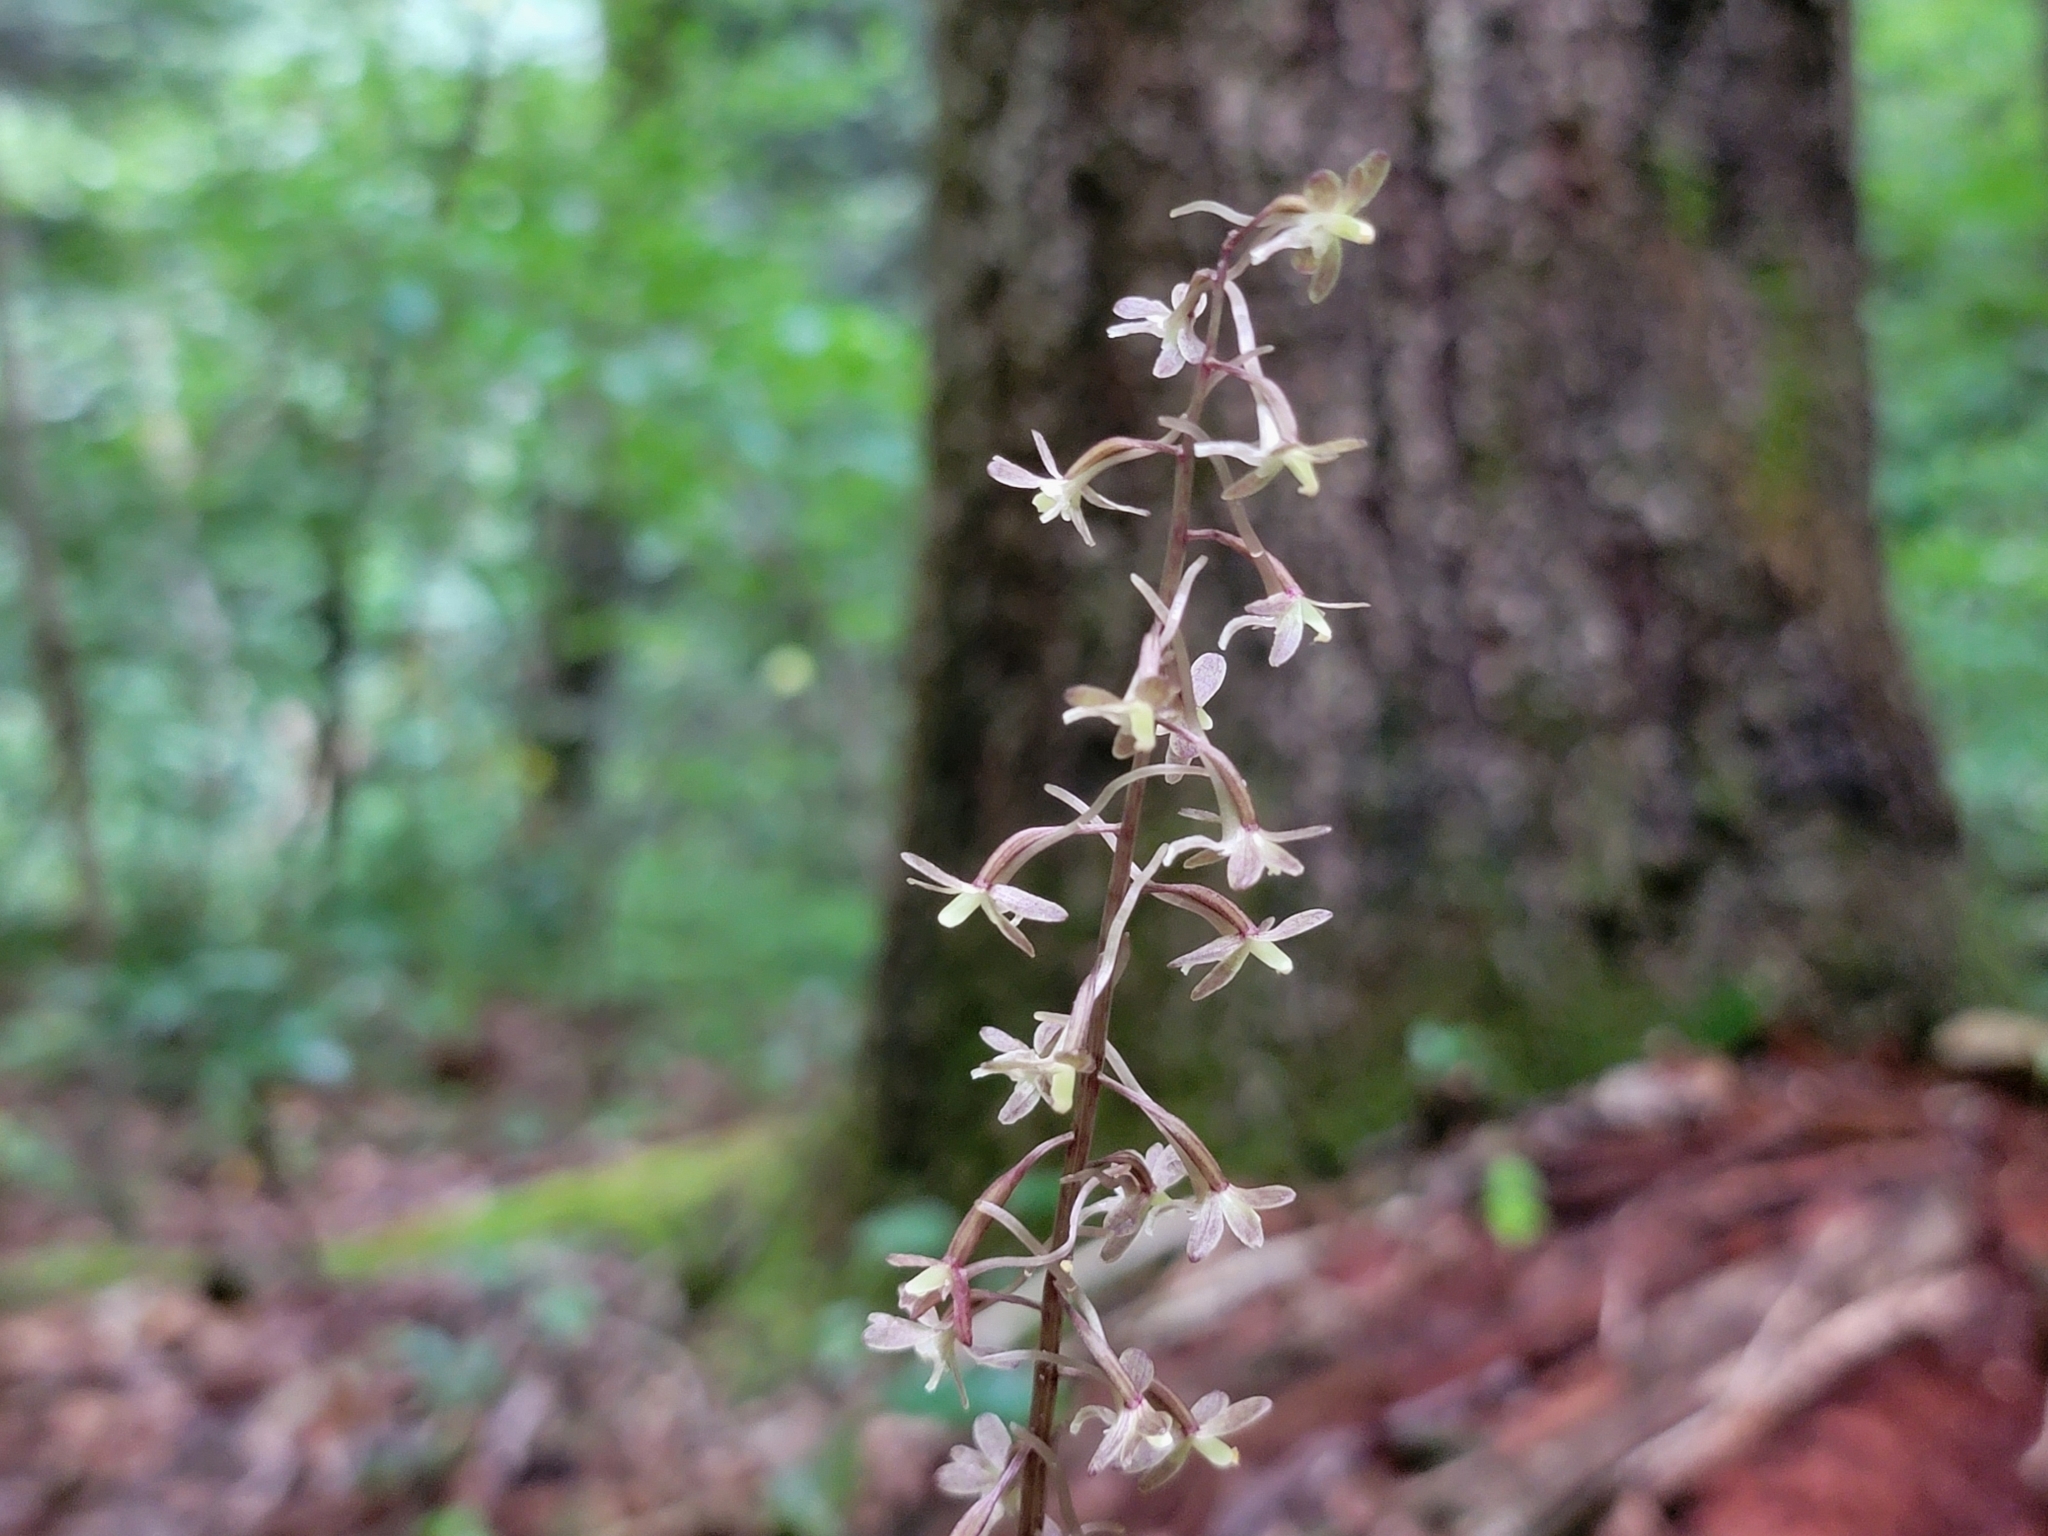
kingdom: Plantae
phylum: Tracheophyta
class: Liliopsida
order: Asparagales
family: Orchidaceae
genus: Tipularia
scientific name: Tipularia discolor
